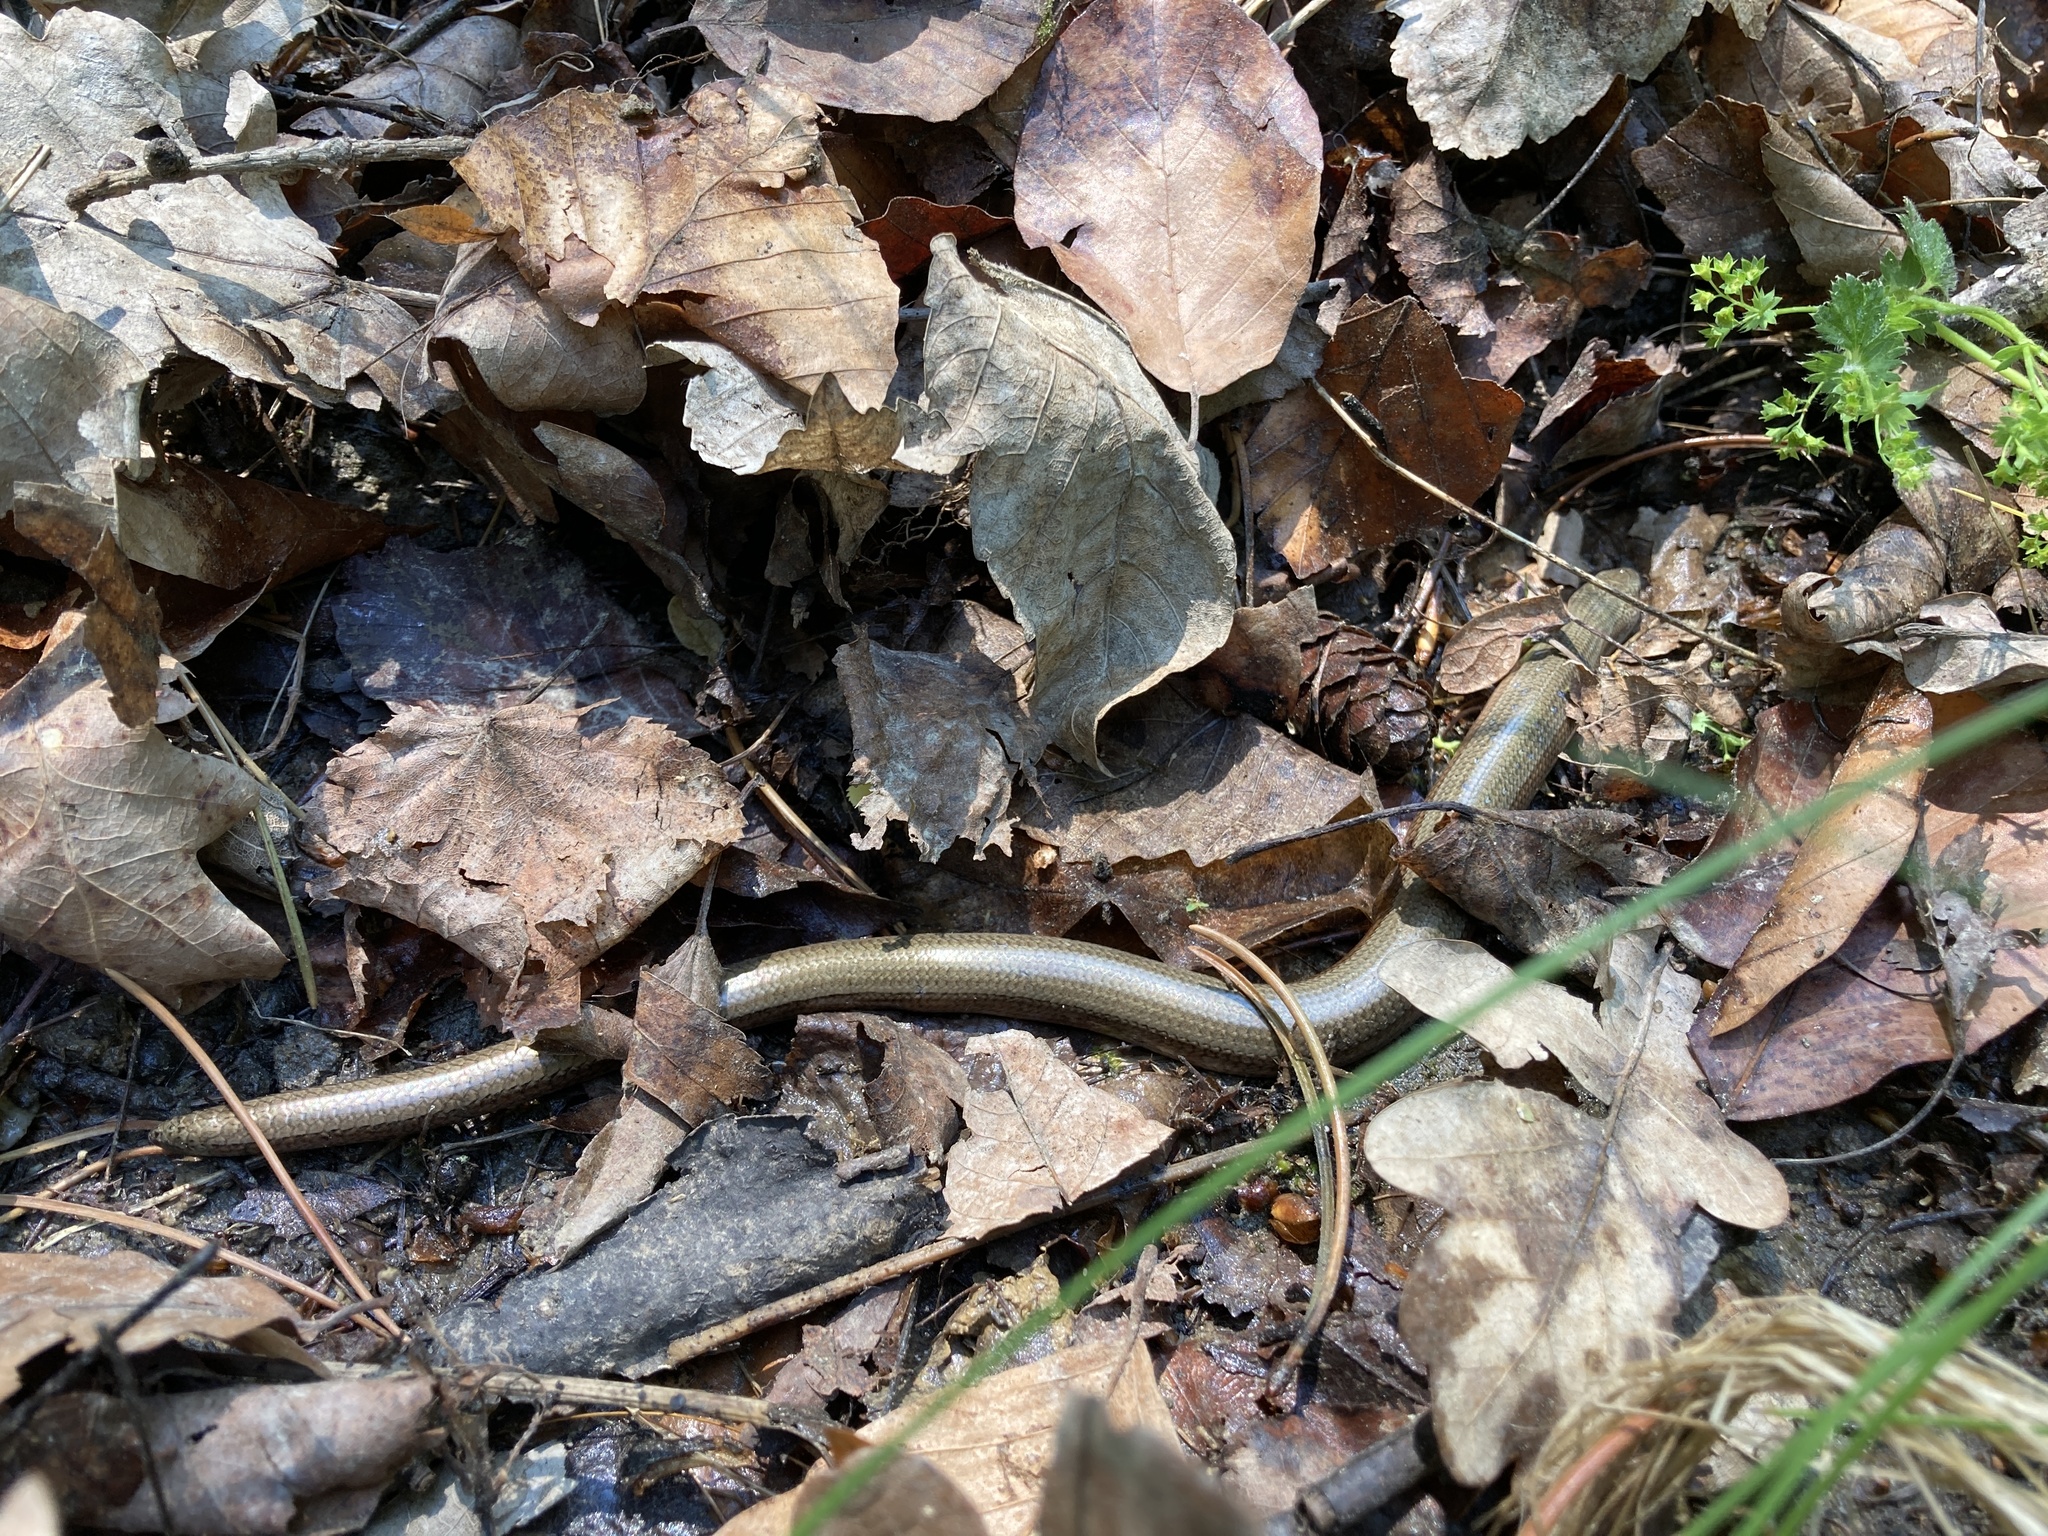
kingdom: Animalia
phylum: Chordata
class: Squamata
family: Anguidae
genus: Anguis
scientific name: Anguis fragilis
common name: Slow worm
